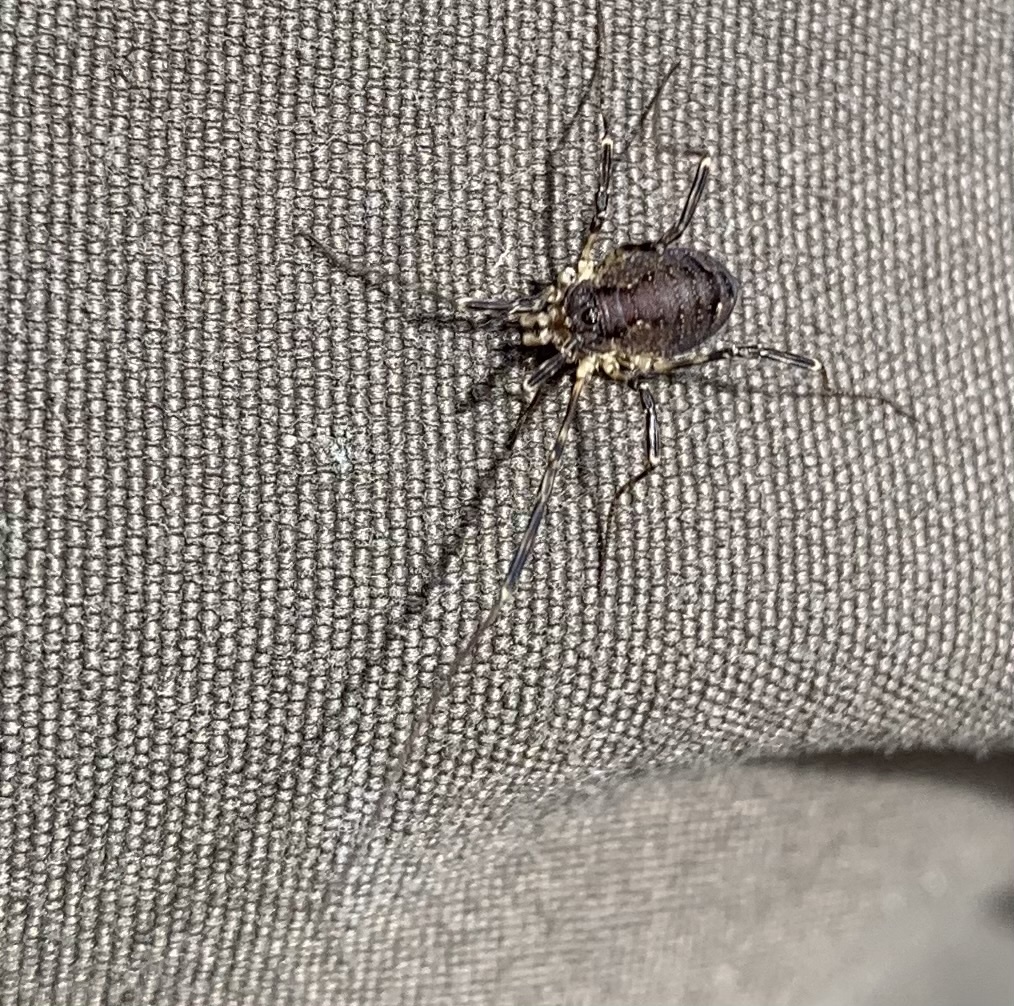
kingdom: Animalia
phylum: Arthropoda
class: Arachnida
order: Opiliones
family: Phalangiidae
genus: Oligolophus
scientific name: Oligolophus hansenii
